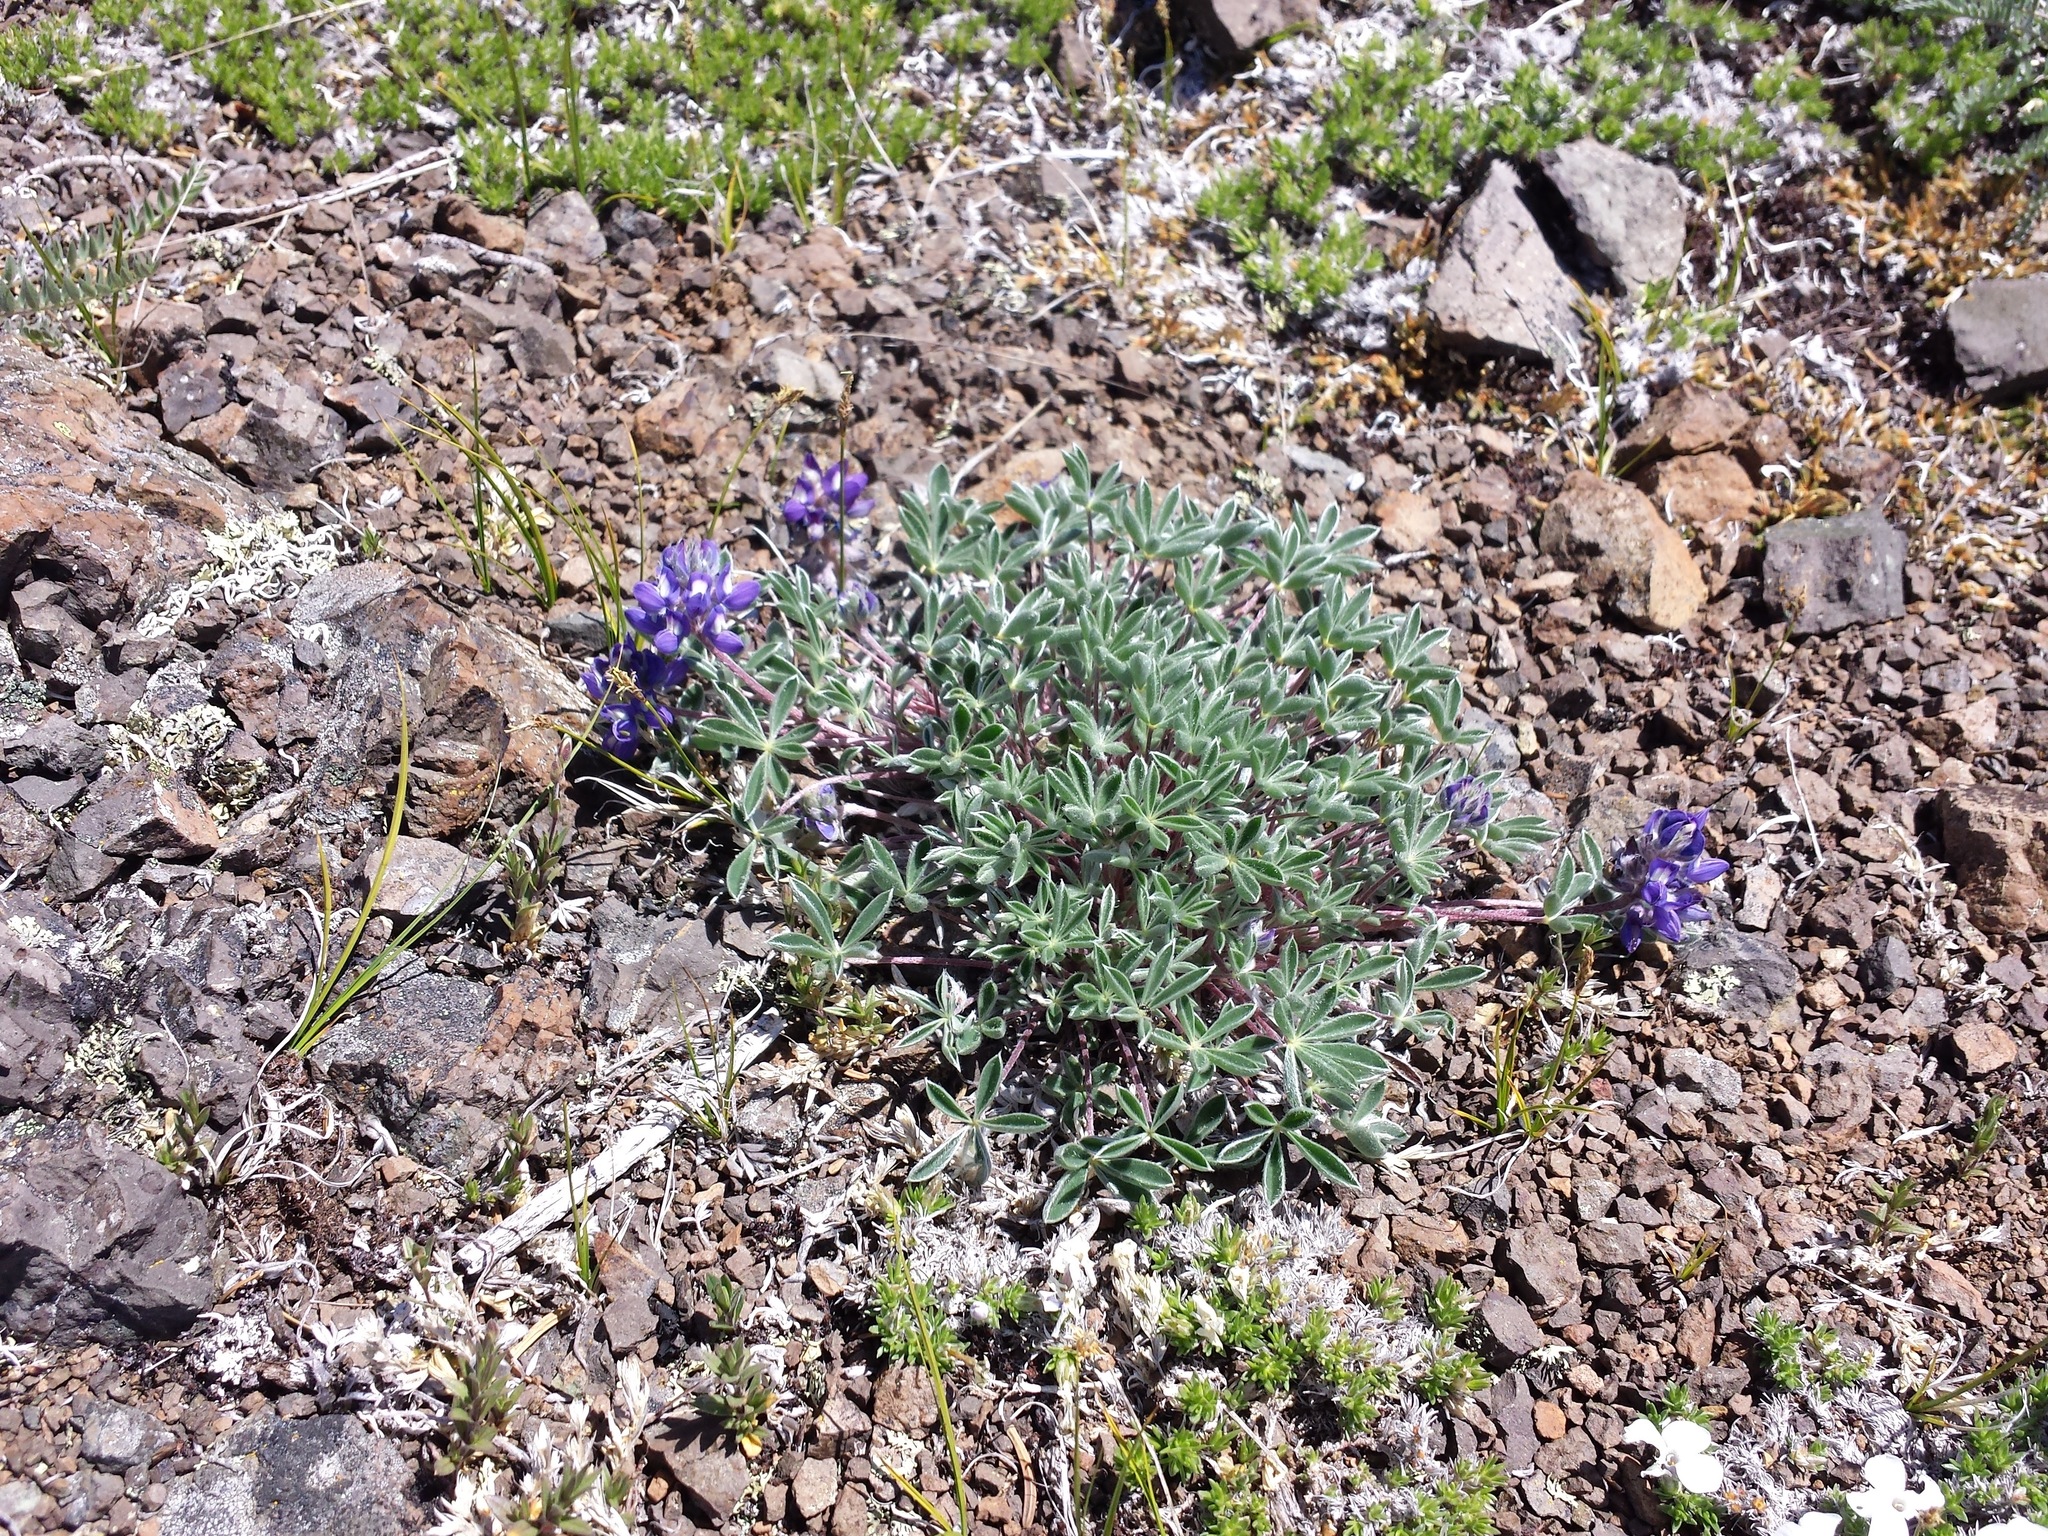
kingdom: Plantae
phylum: Tracheophyta
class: Magnoliopsida
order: Fabales
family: Fabaceae
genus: Lupinus
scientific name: Lupinus sellulus
